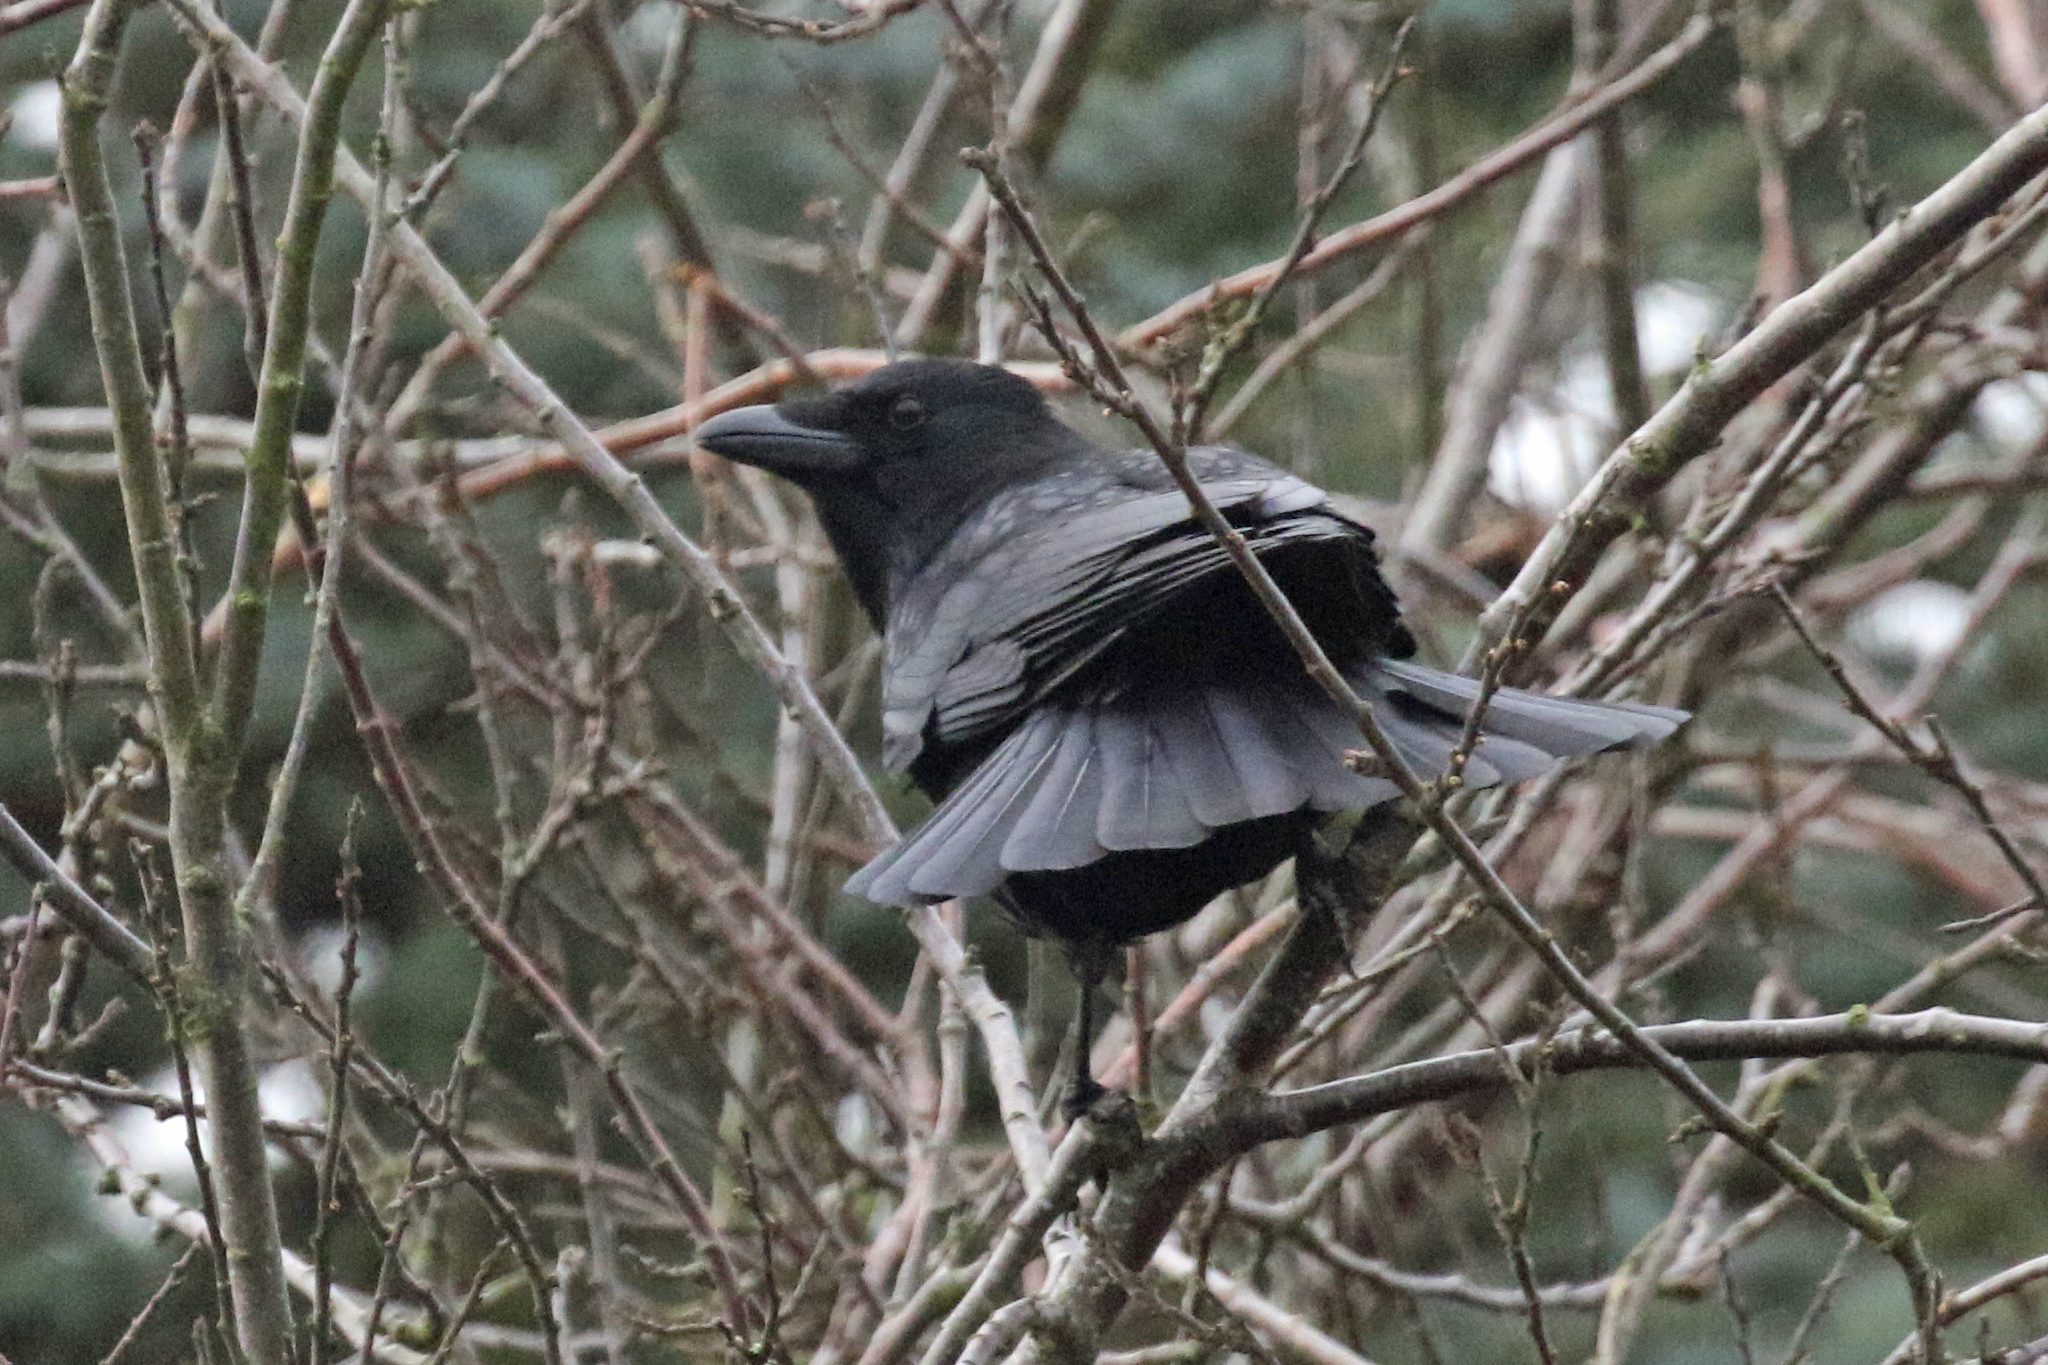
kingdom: Animalia
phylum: Chordata
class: Aves
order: Passeriformes
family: Corvidae
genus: Corvus
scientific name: Corvus corone
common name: Carrion crow
